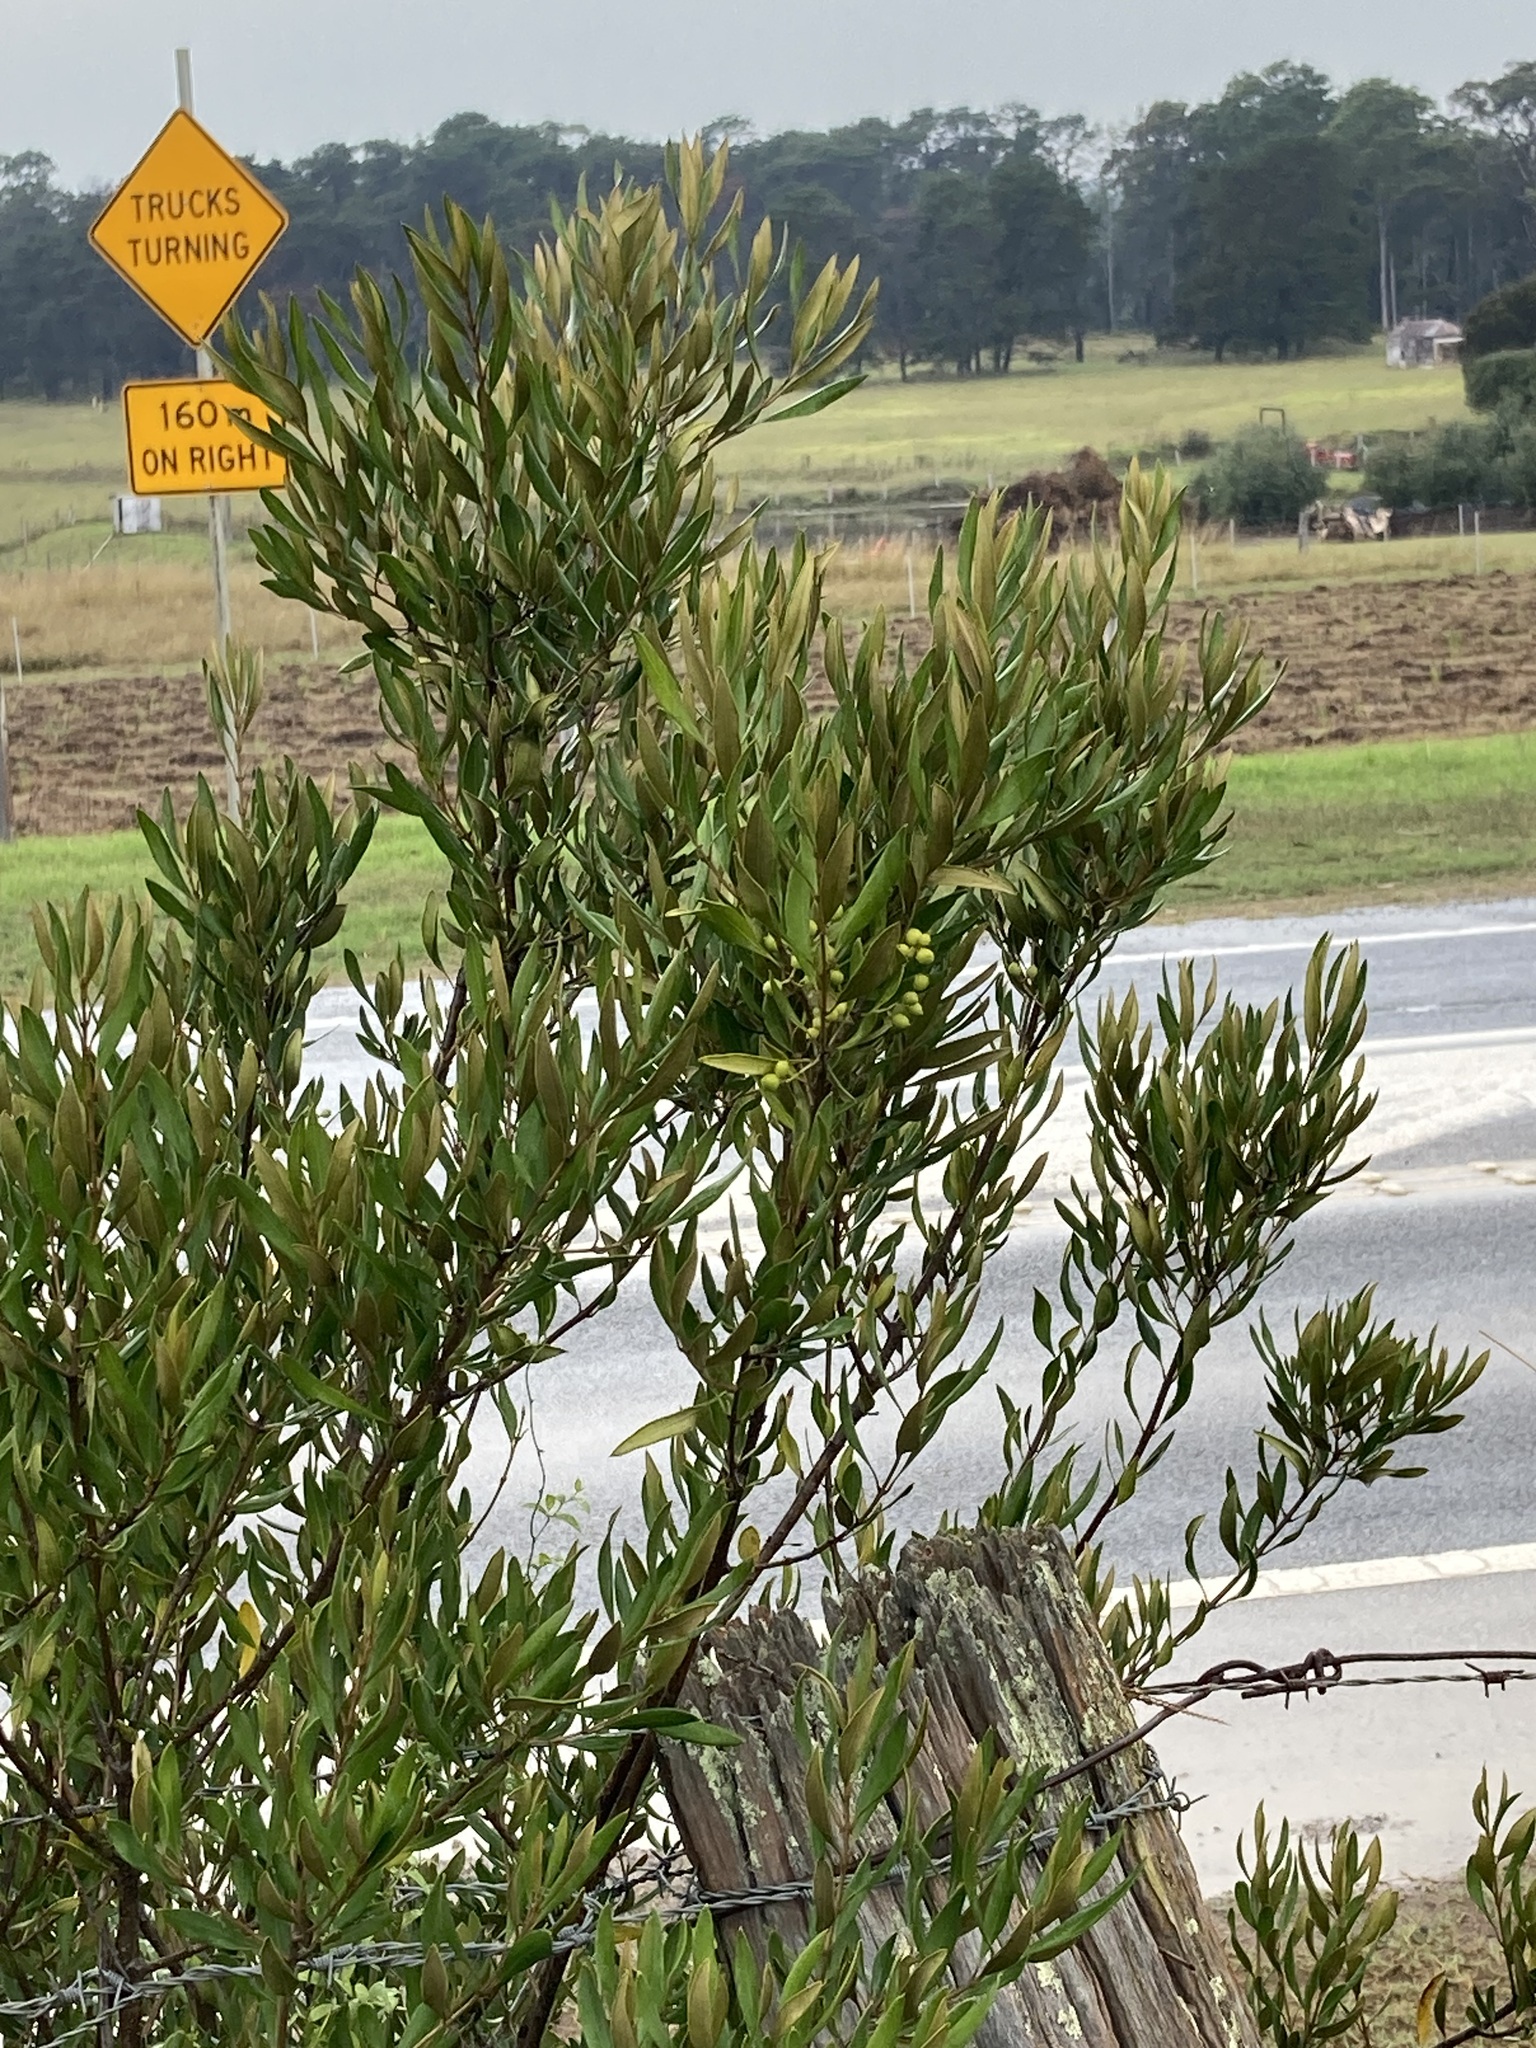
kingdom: Plantae
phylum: Tracheophyta
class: Magnoliopsida
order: Lamiales
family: Oleaceae
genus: Olea
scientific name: Olea europaea
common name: Olive
